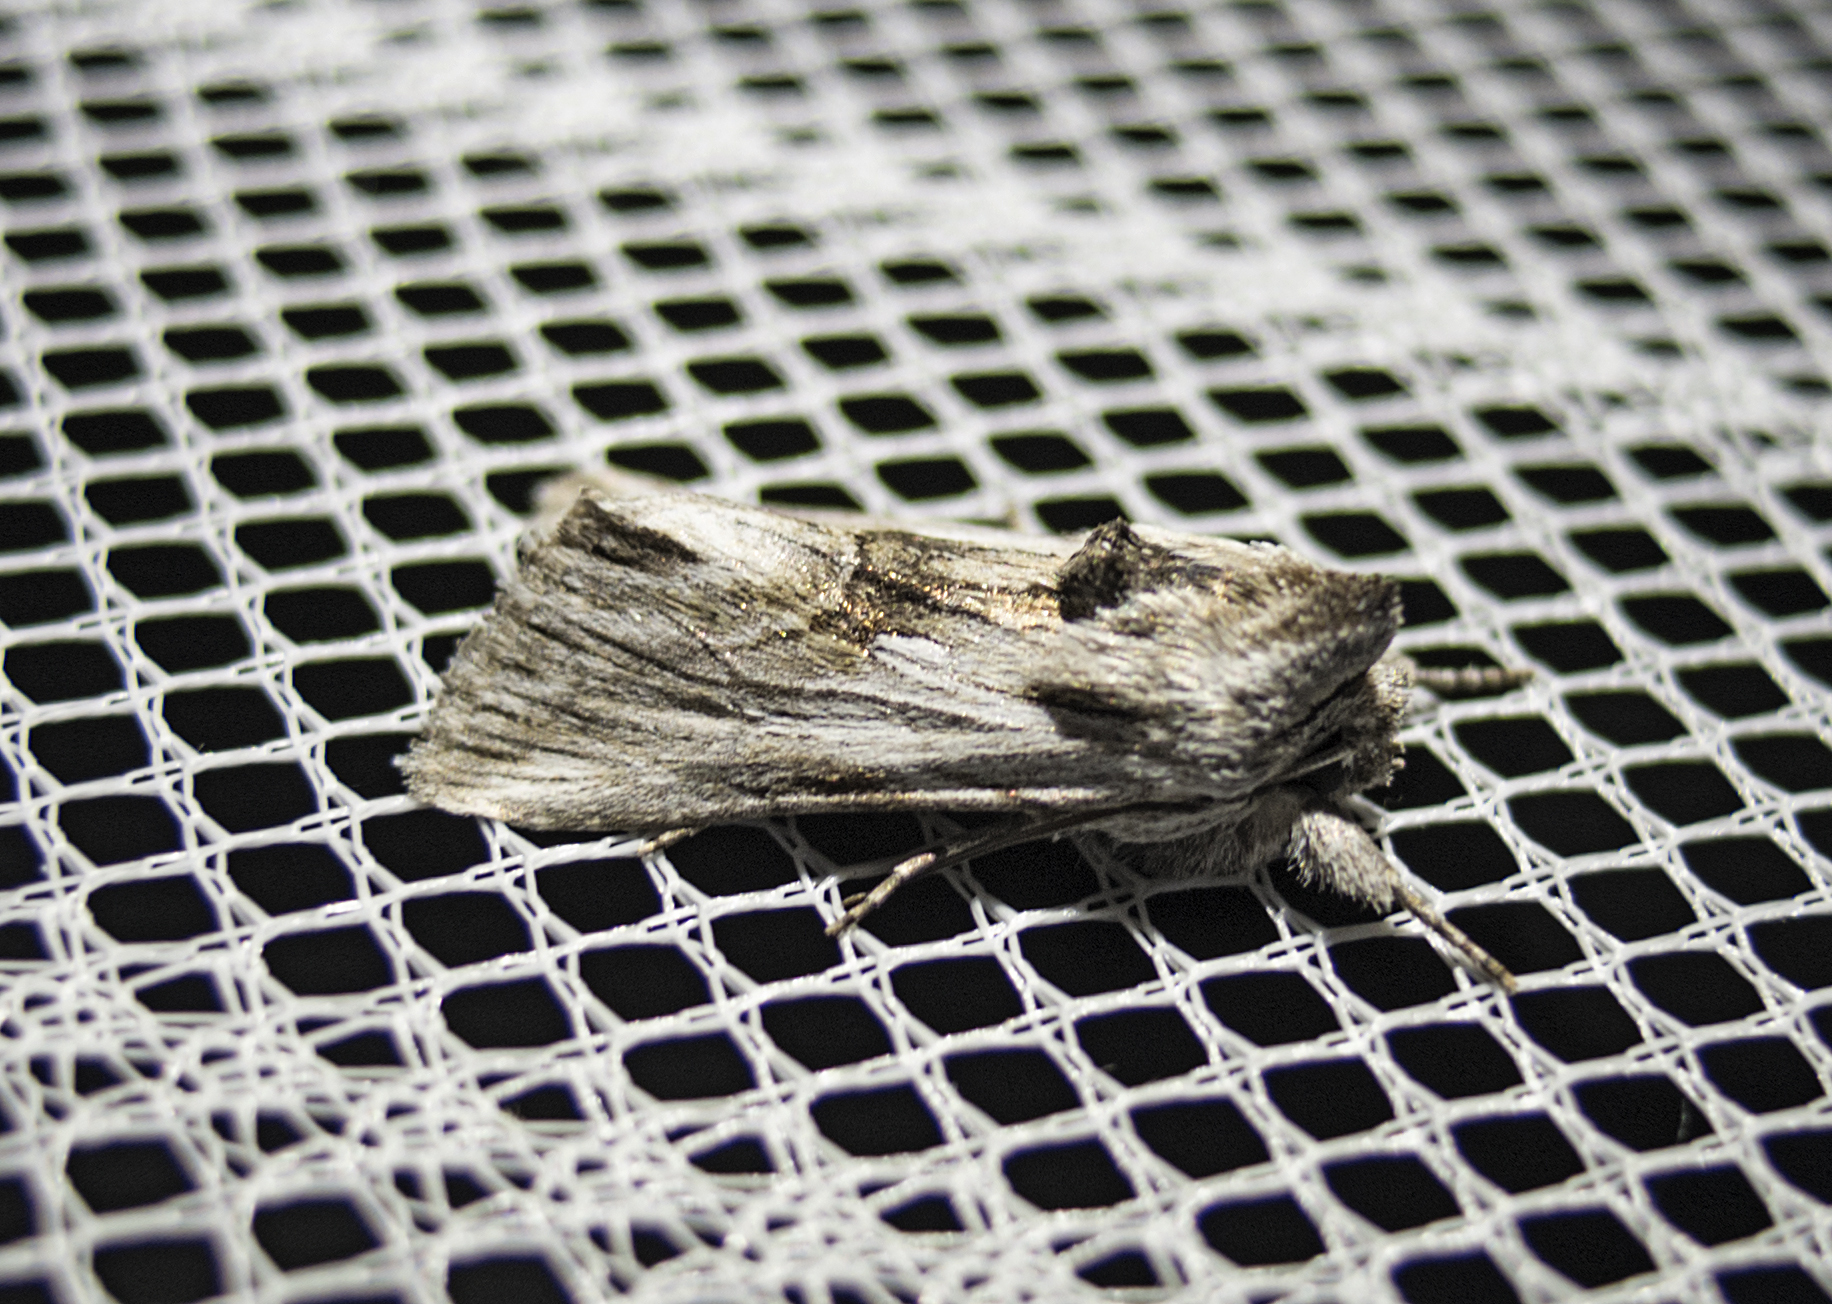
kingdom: Animalia
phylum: Arthropoda
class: Insecta
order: Lepidoptera
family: Noctuidae
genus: Calophasia
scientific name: Calophasia platyptera
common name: Antirrhinum brocade
